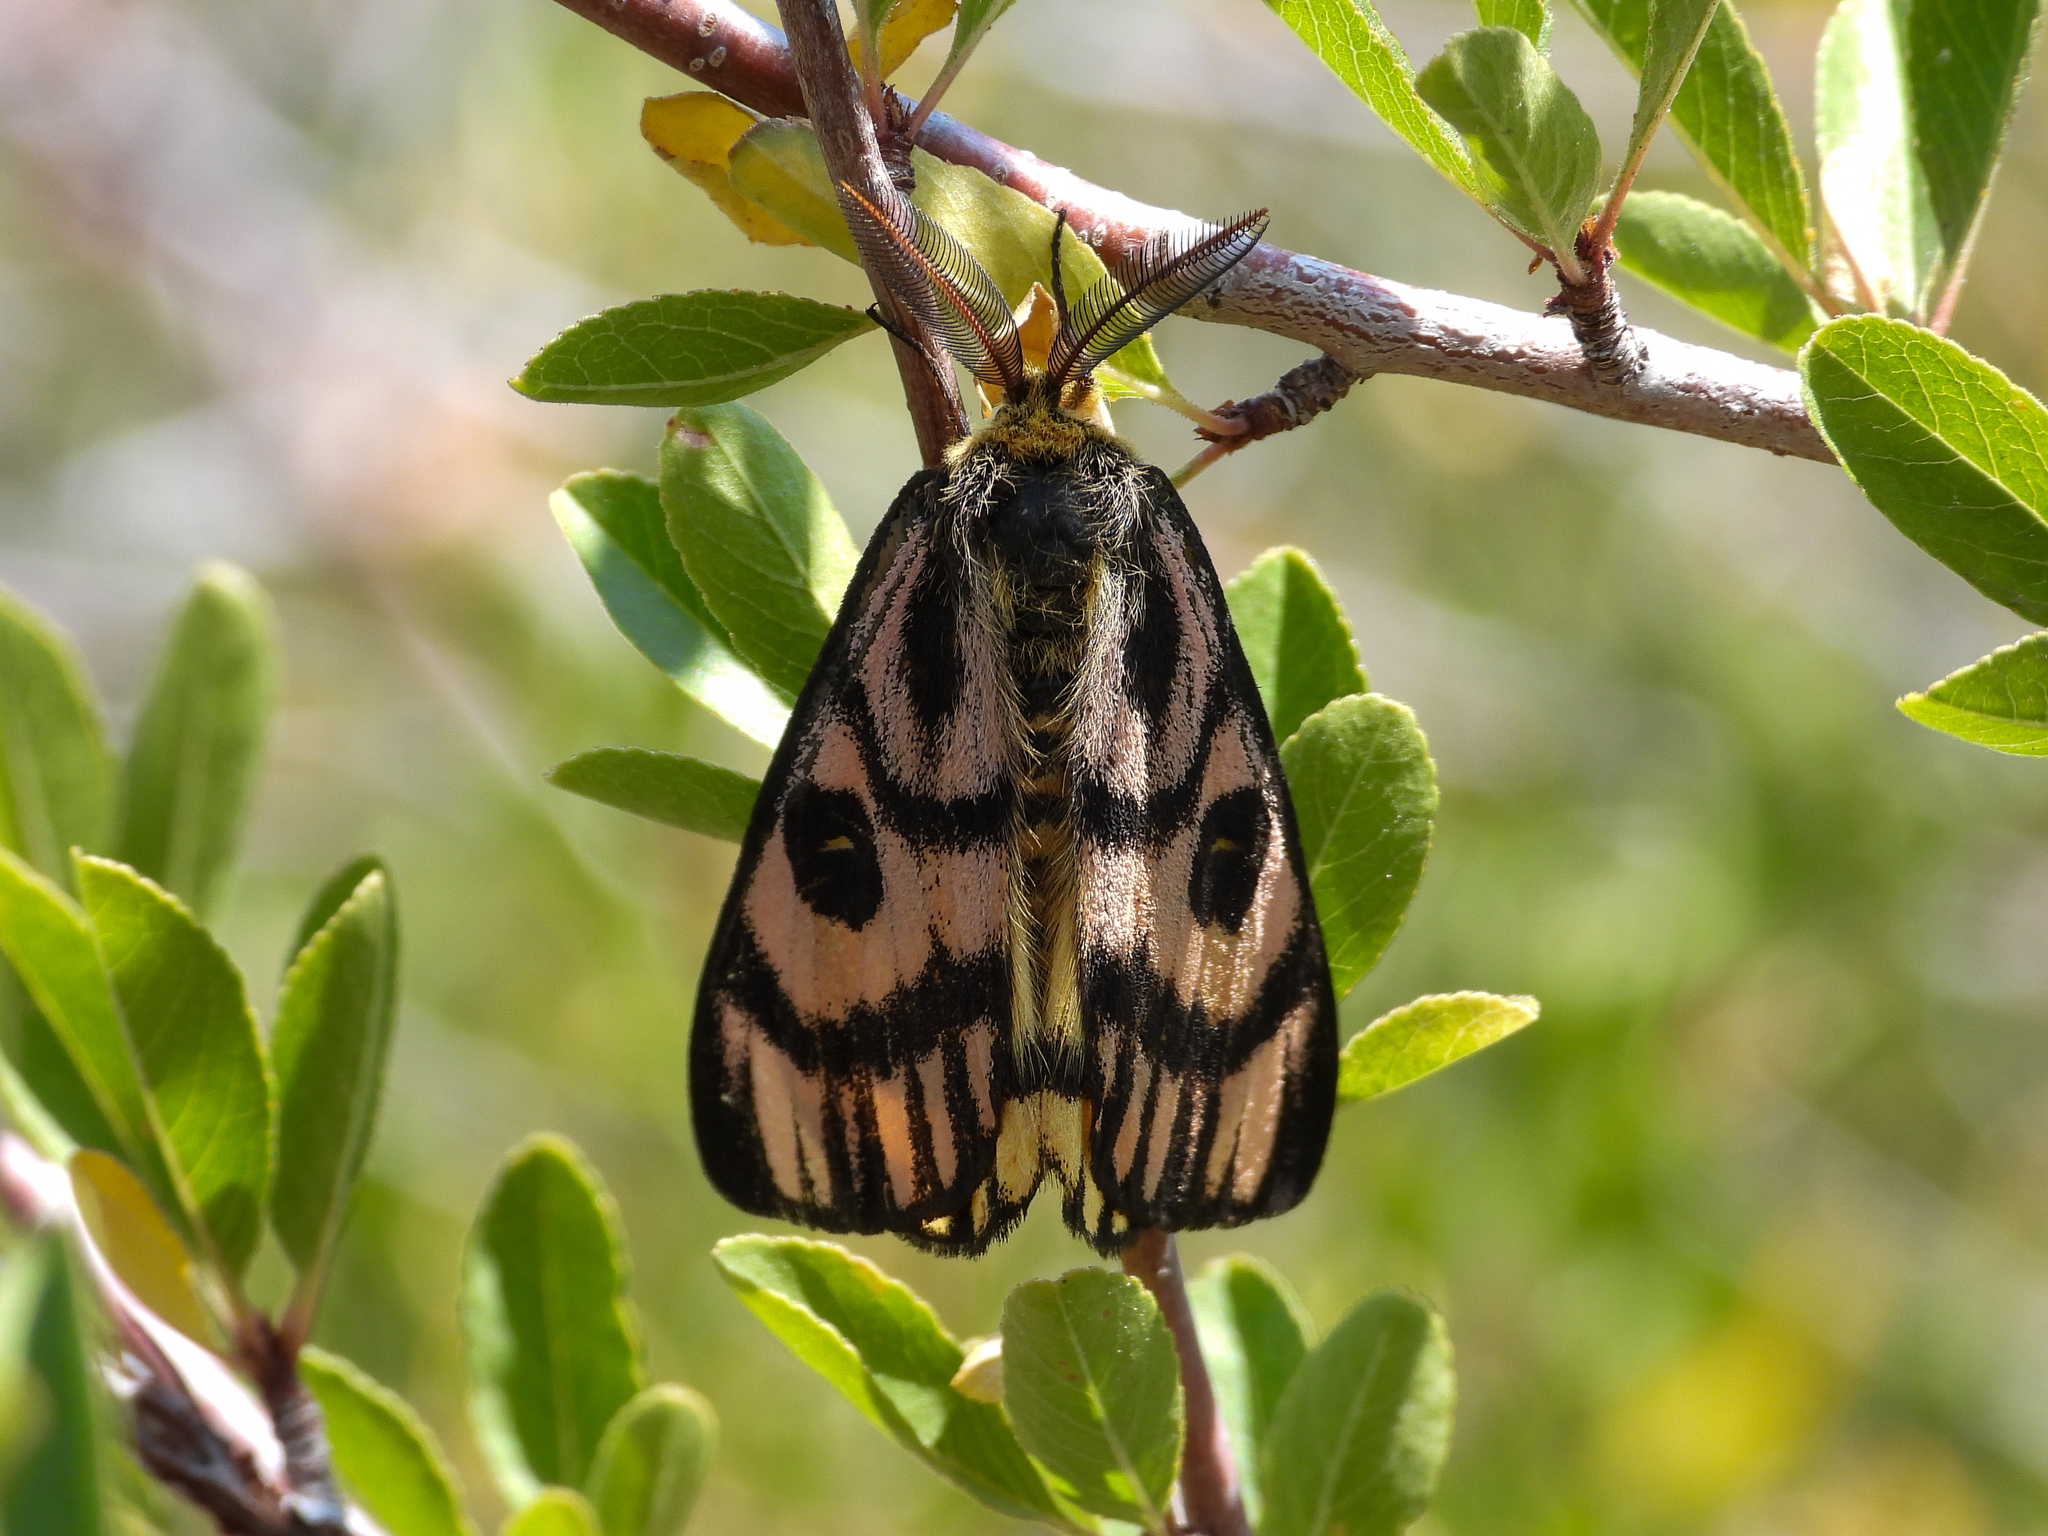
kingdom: Animalia
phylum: Arthropoda
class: Insecta
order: Lepidoptera
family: Saturniidae
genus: Hemileuca
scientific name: Hemileuca eglanterina
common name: Western sheepmoth
